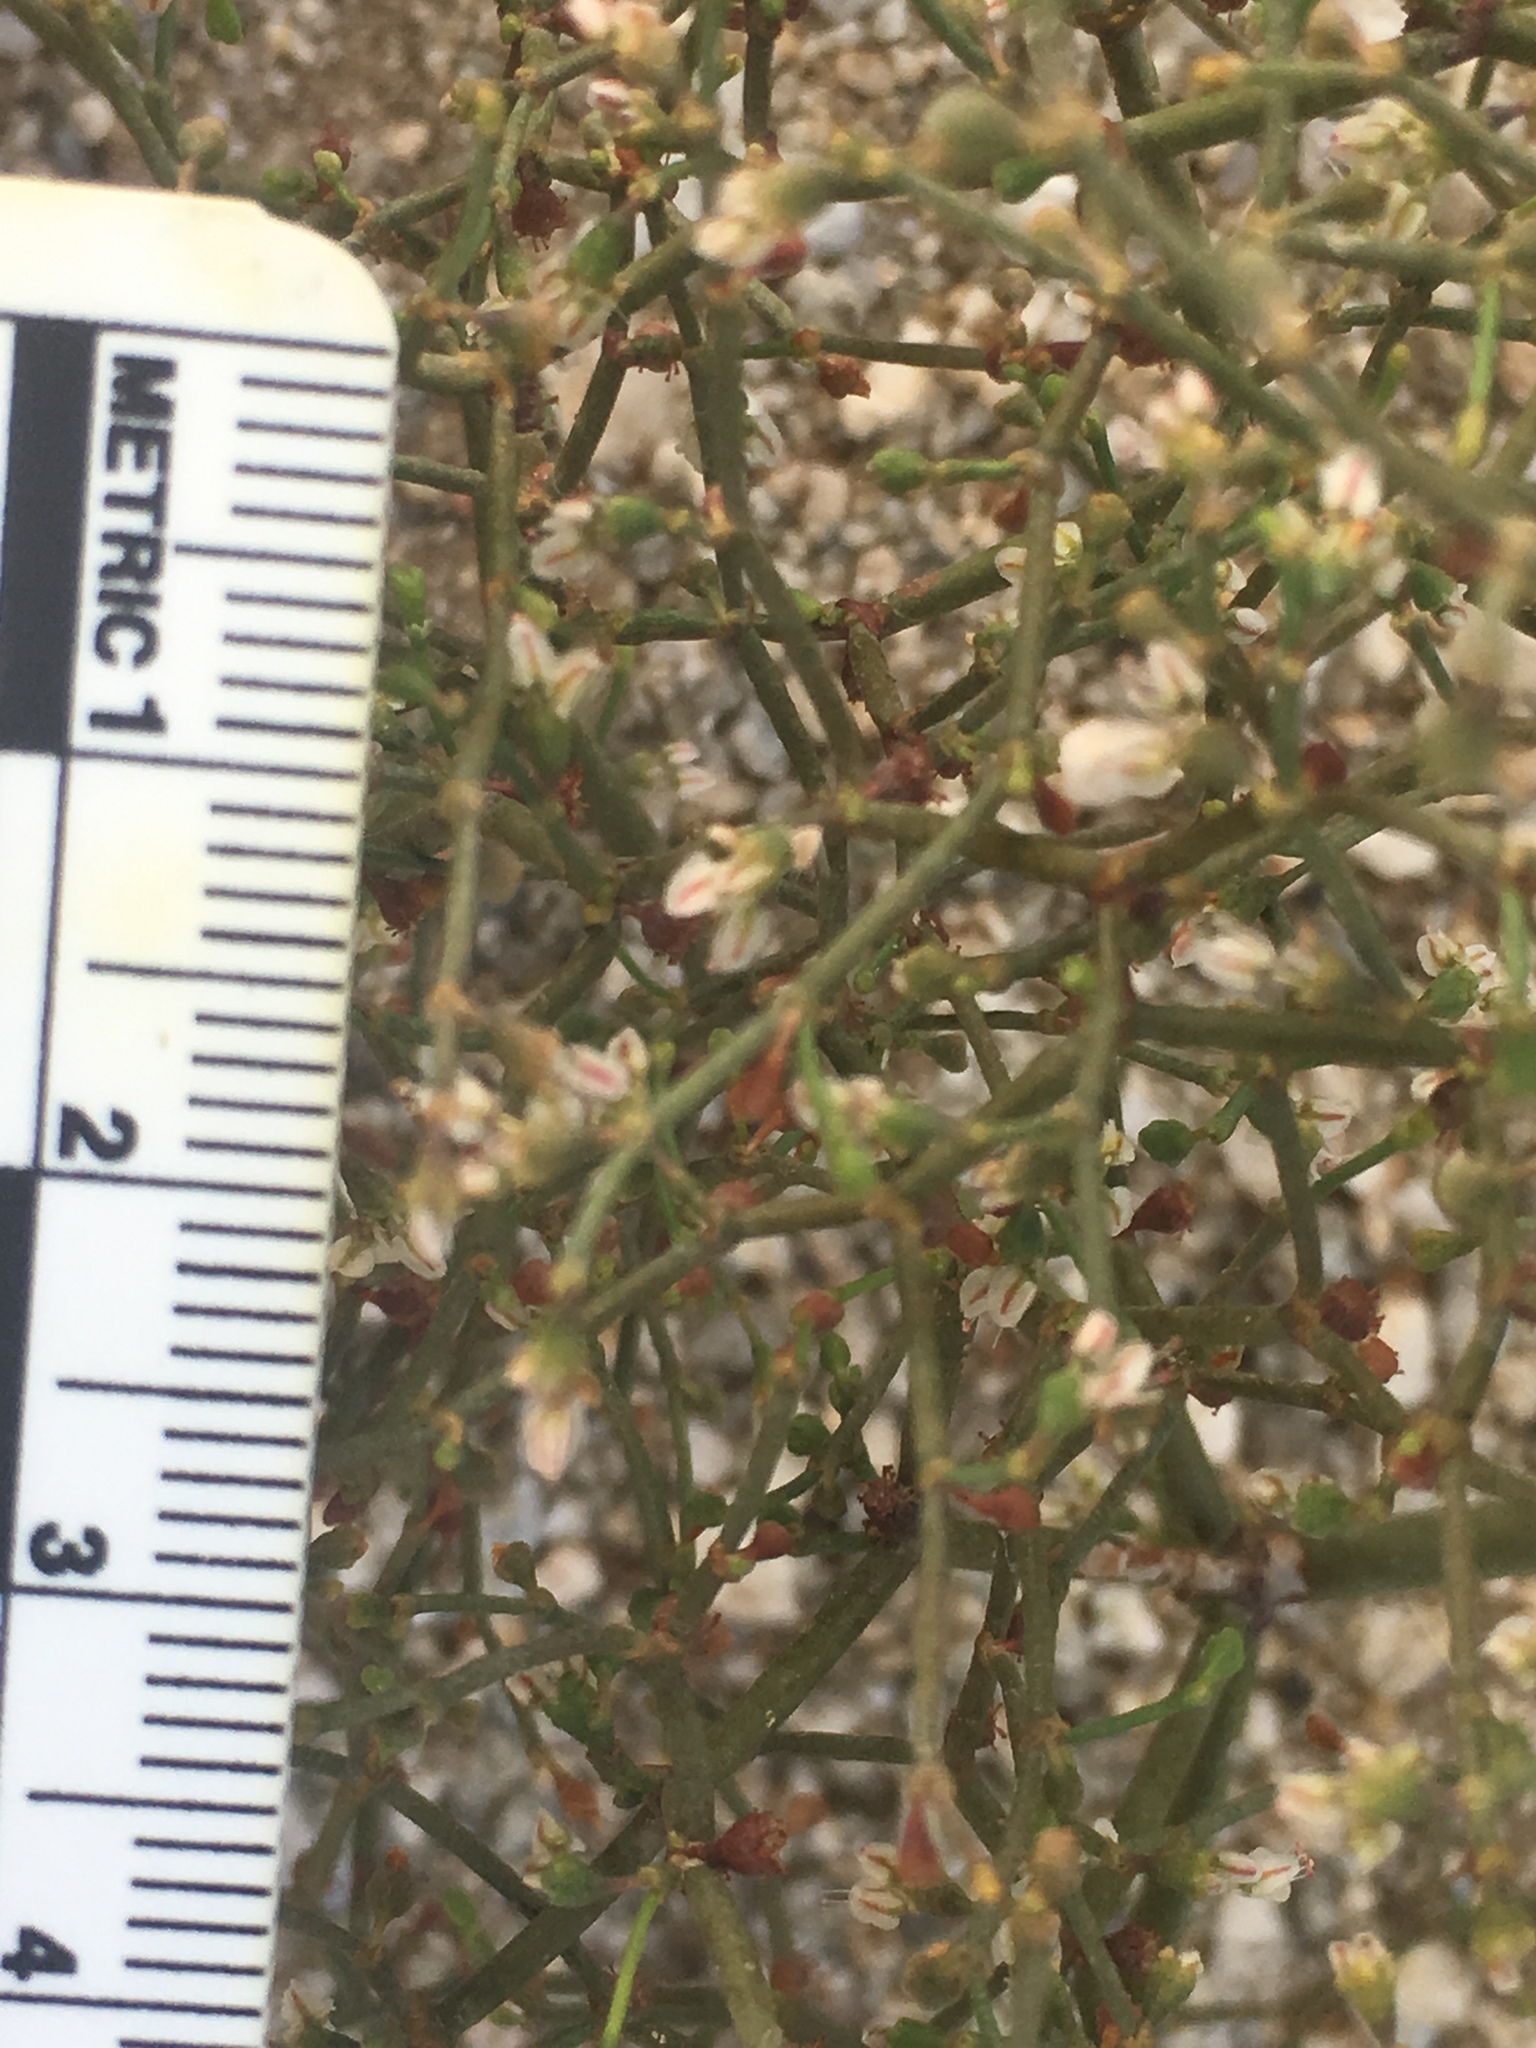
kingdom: Plantae
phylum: Tracheophyta
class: Magnoliopsida
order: Caryophyllales
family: Polygonaceae
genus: Eriogonum
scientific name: Eriogonum deflexum
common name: Skeleton-weed
